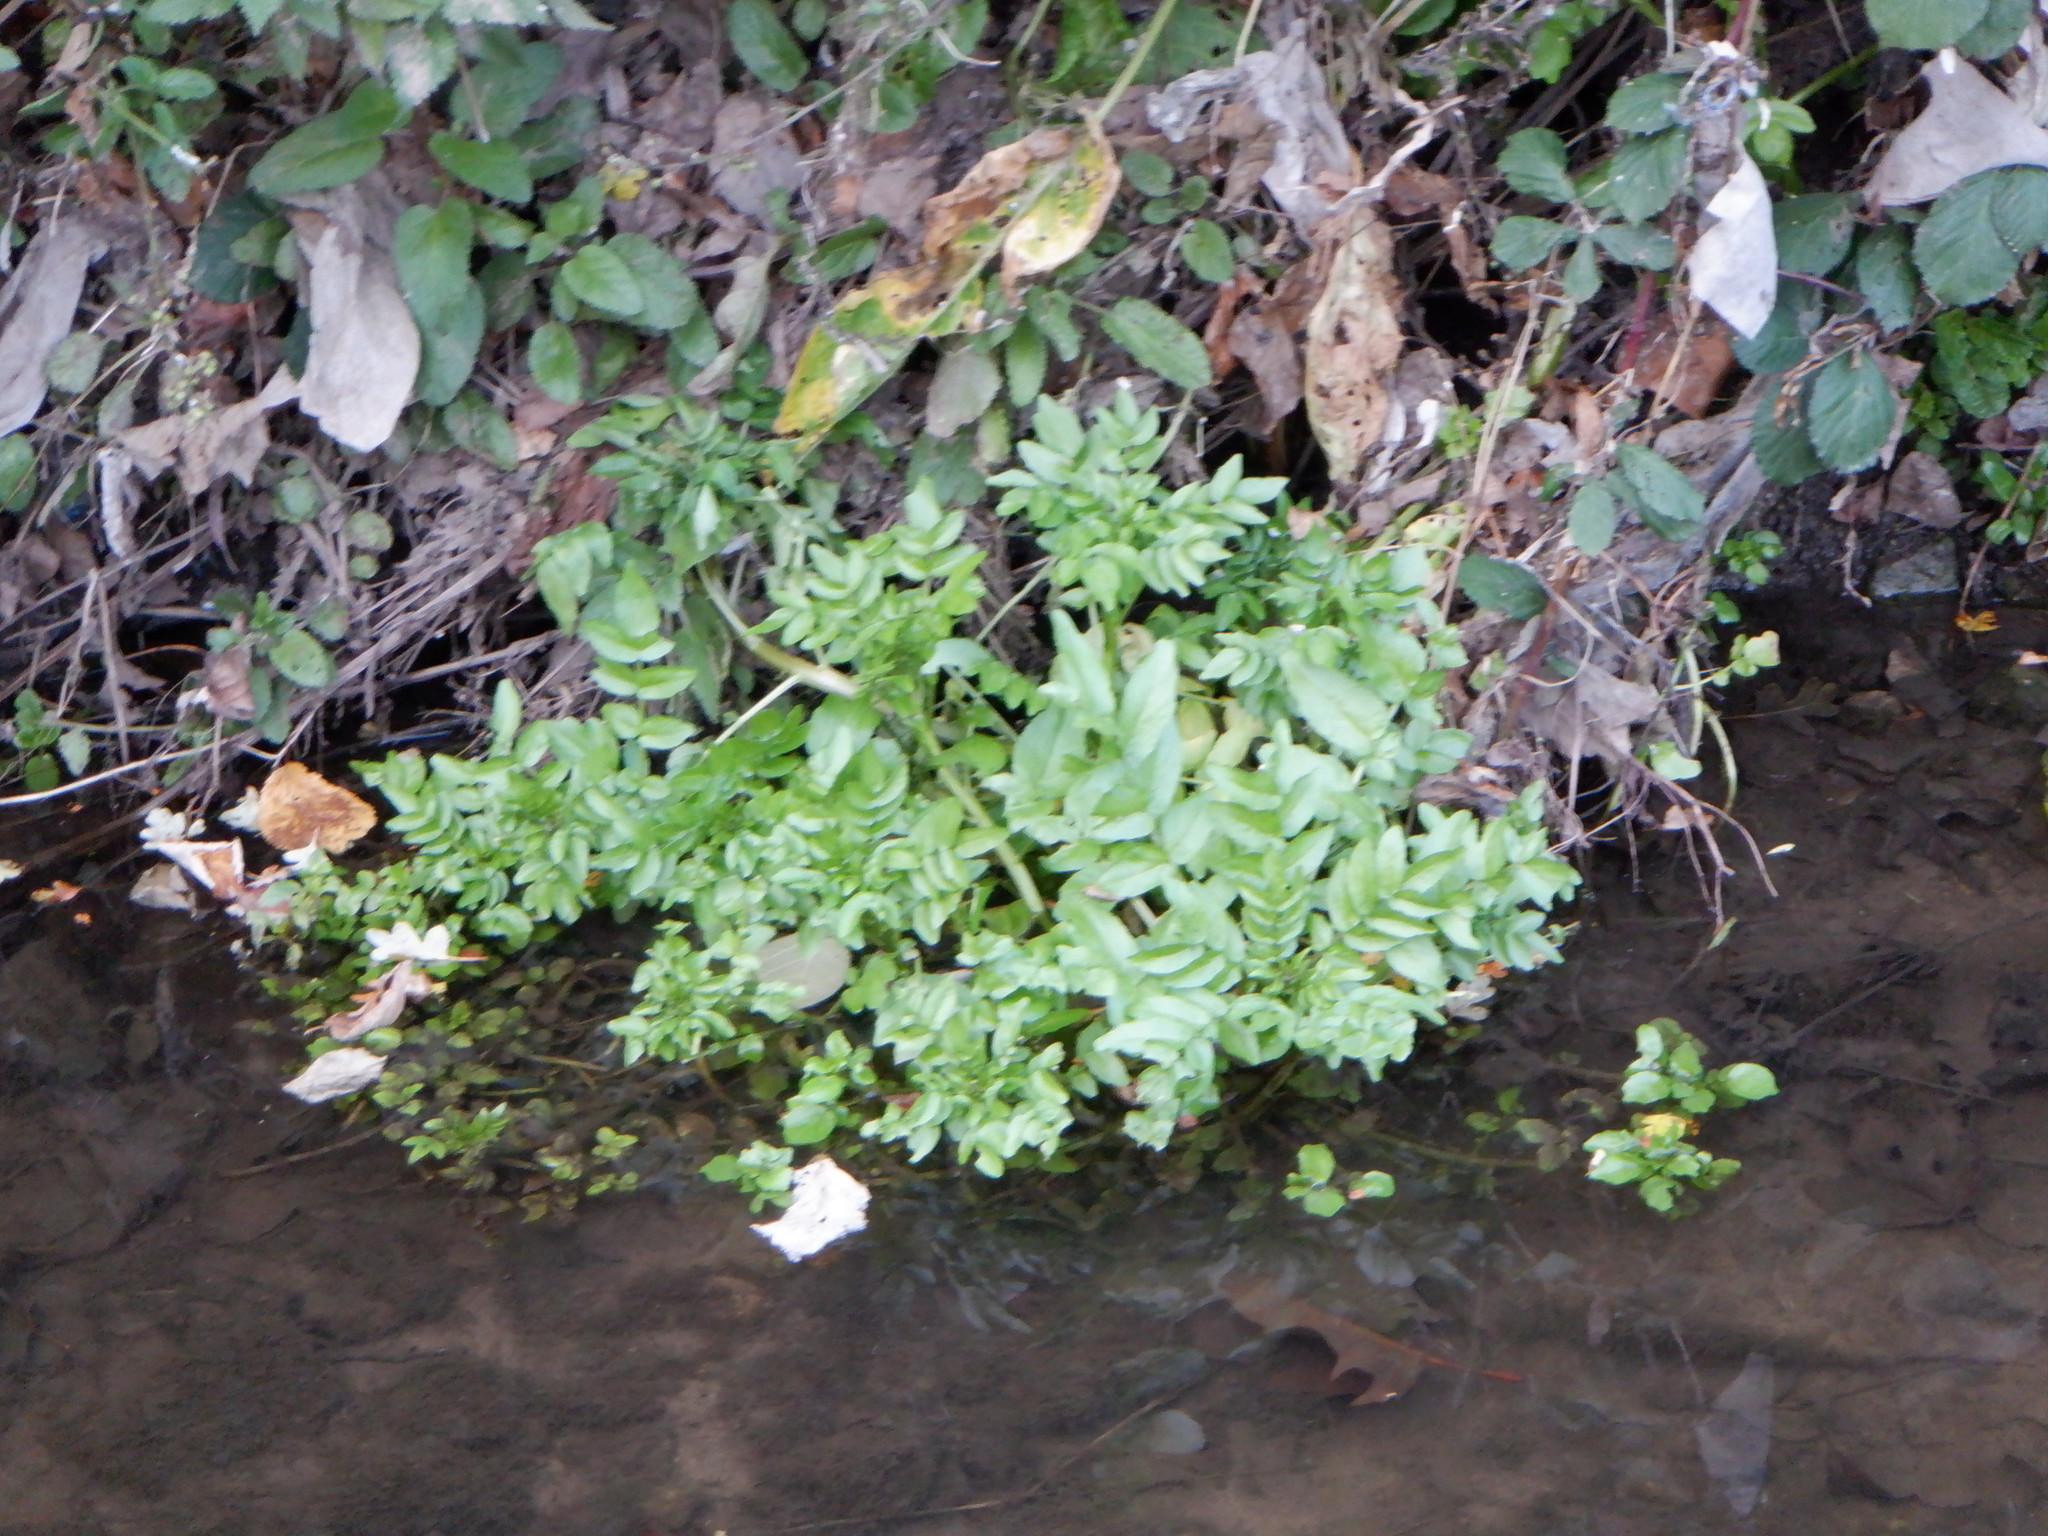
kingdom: Plantae
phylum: Tracheophyta
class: Magnoliopsida
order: Apiales
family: Apiaceae
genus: Helosciadium
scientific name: Helosciadium nodiflorum
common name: Fool's-watercress
